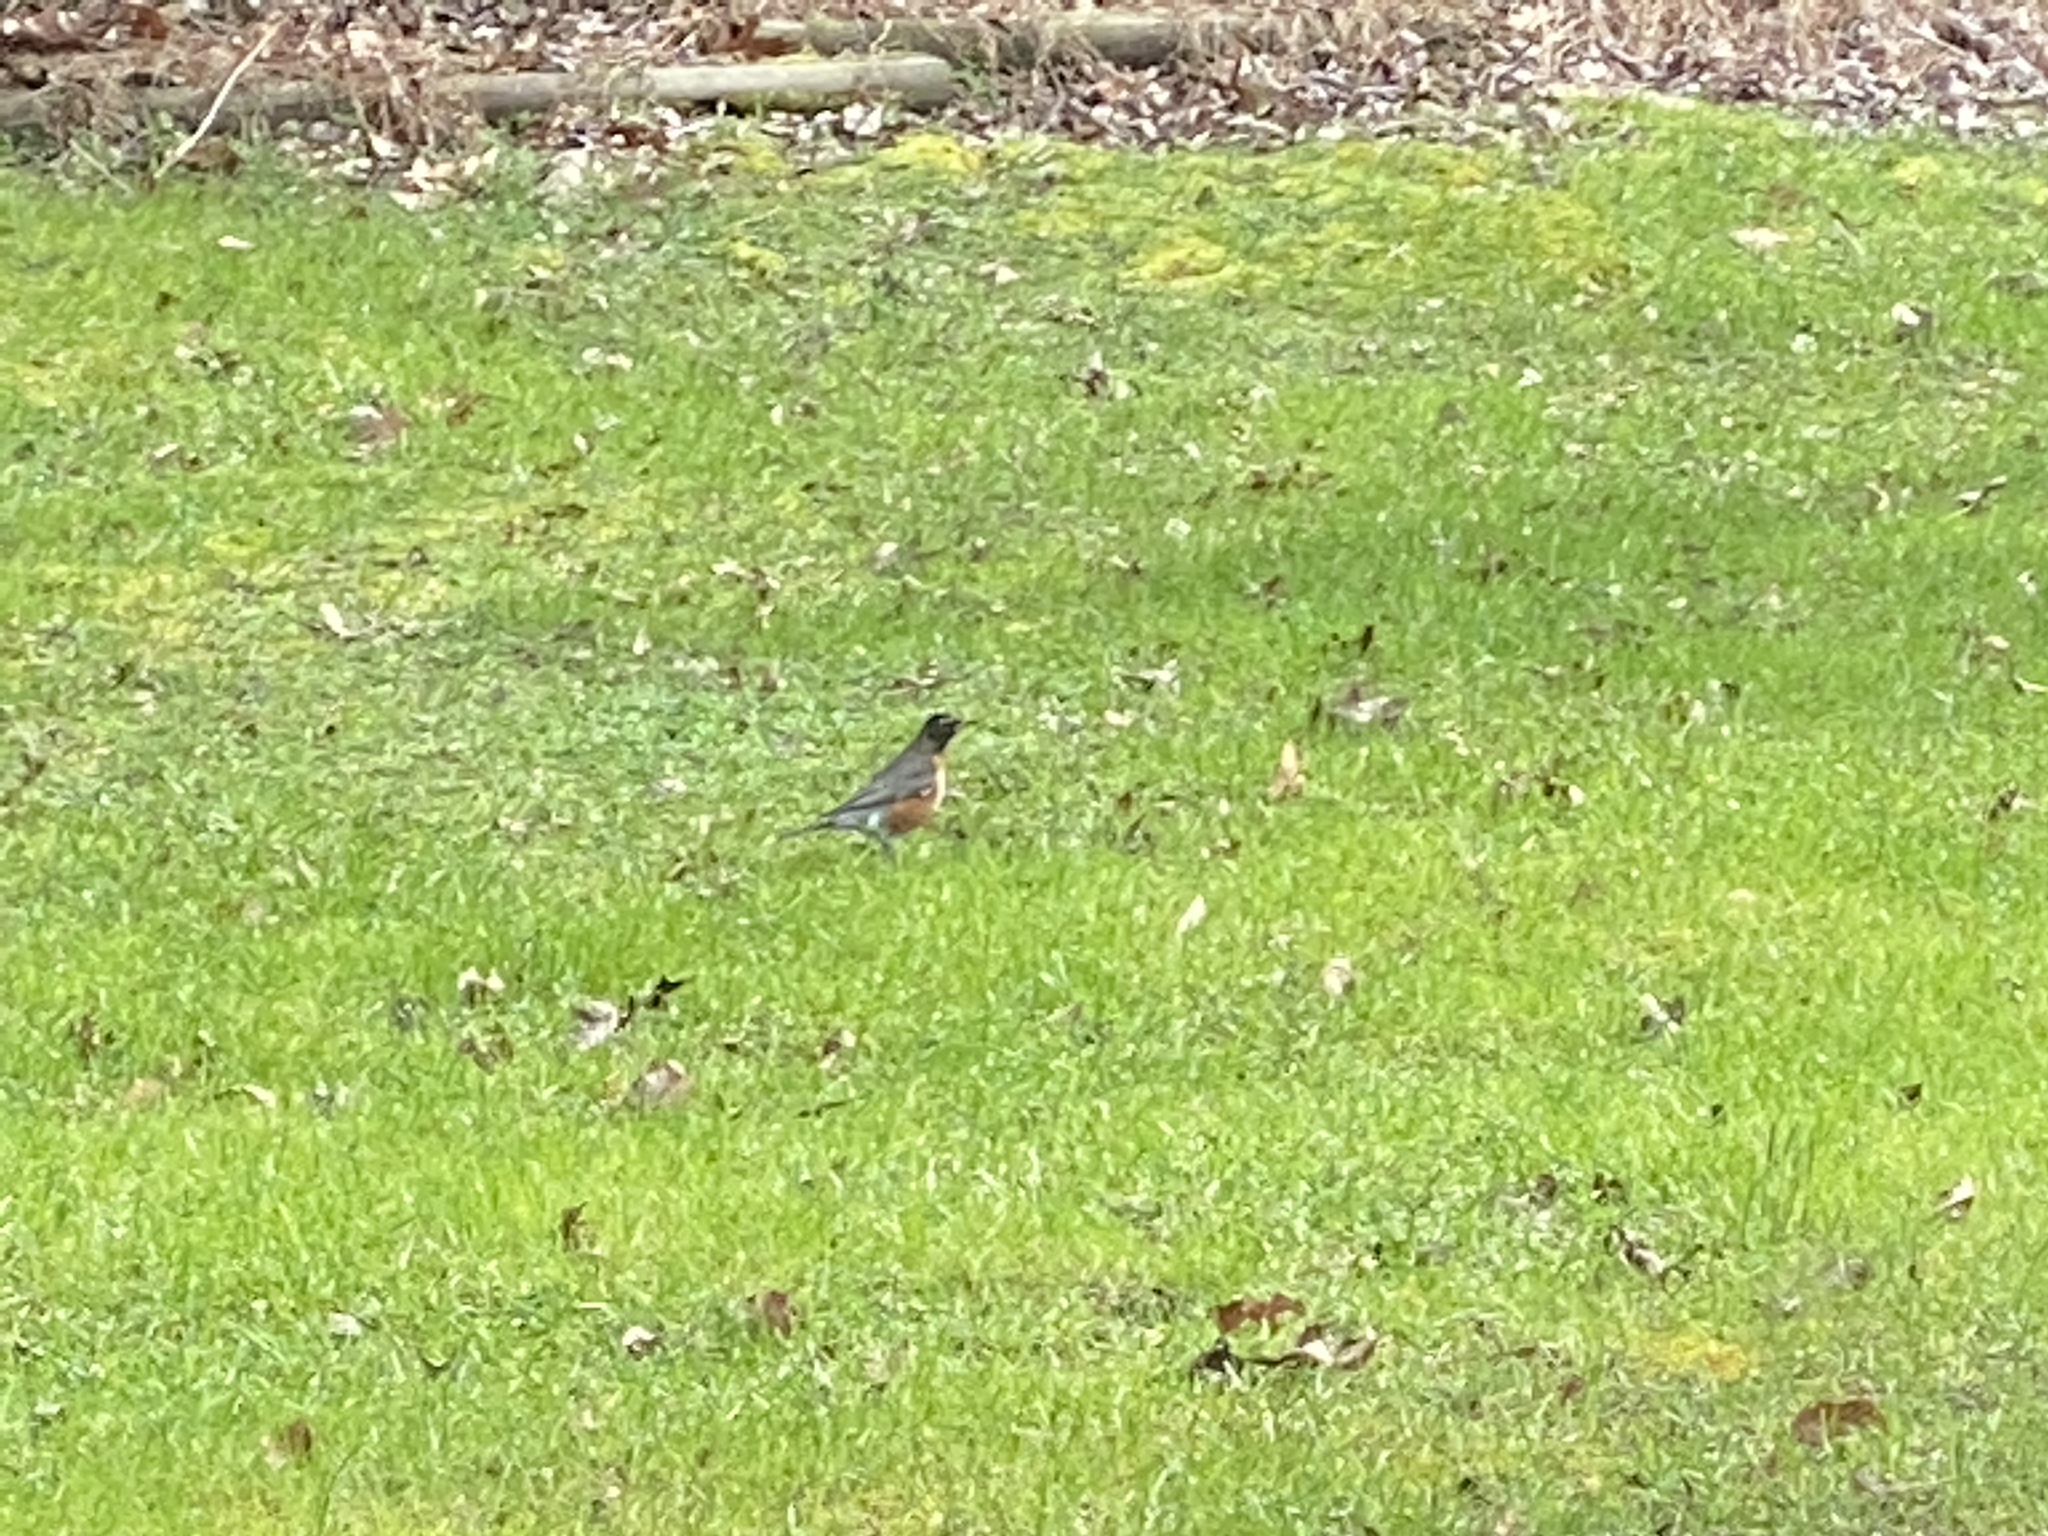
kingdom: Animalia
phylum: Chordata
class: Aves
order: Passeriformes
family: Turdidae
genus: Turdus
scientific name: Turdus migratorius
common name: American robin
